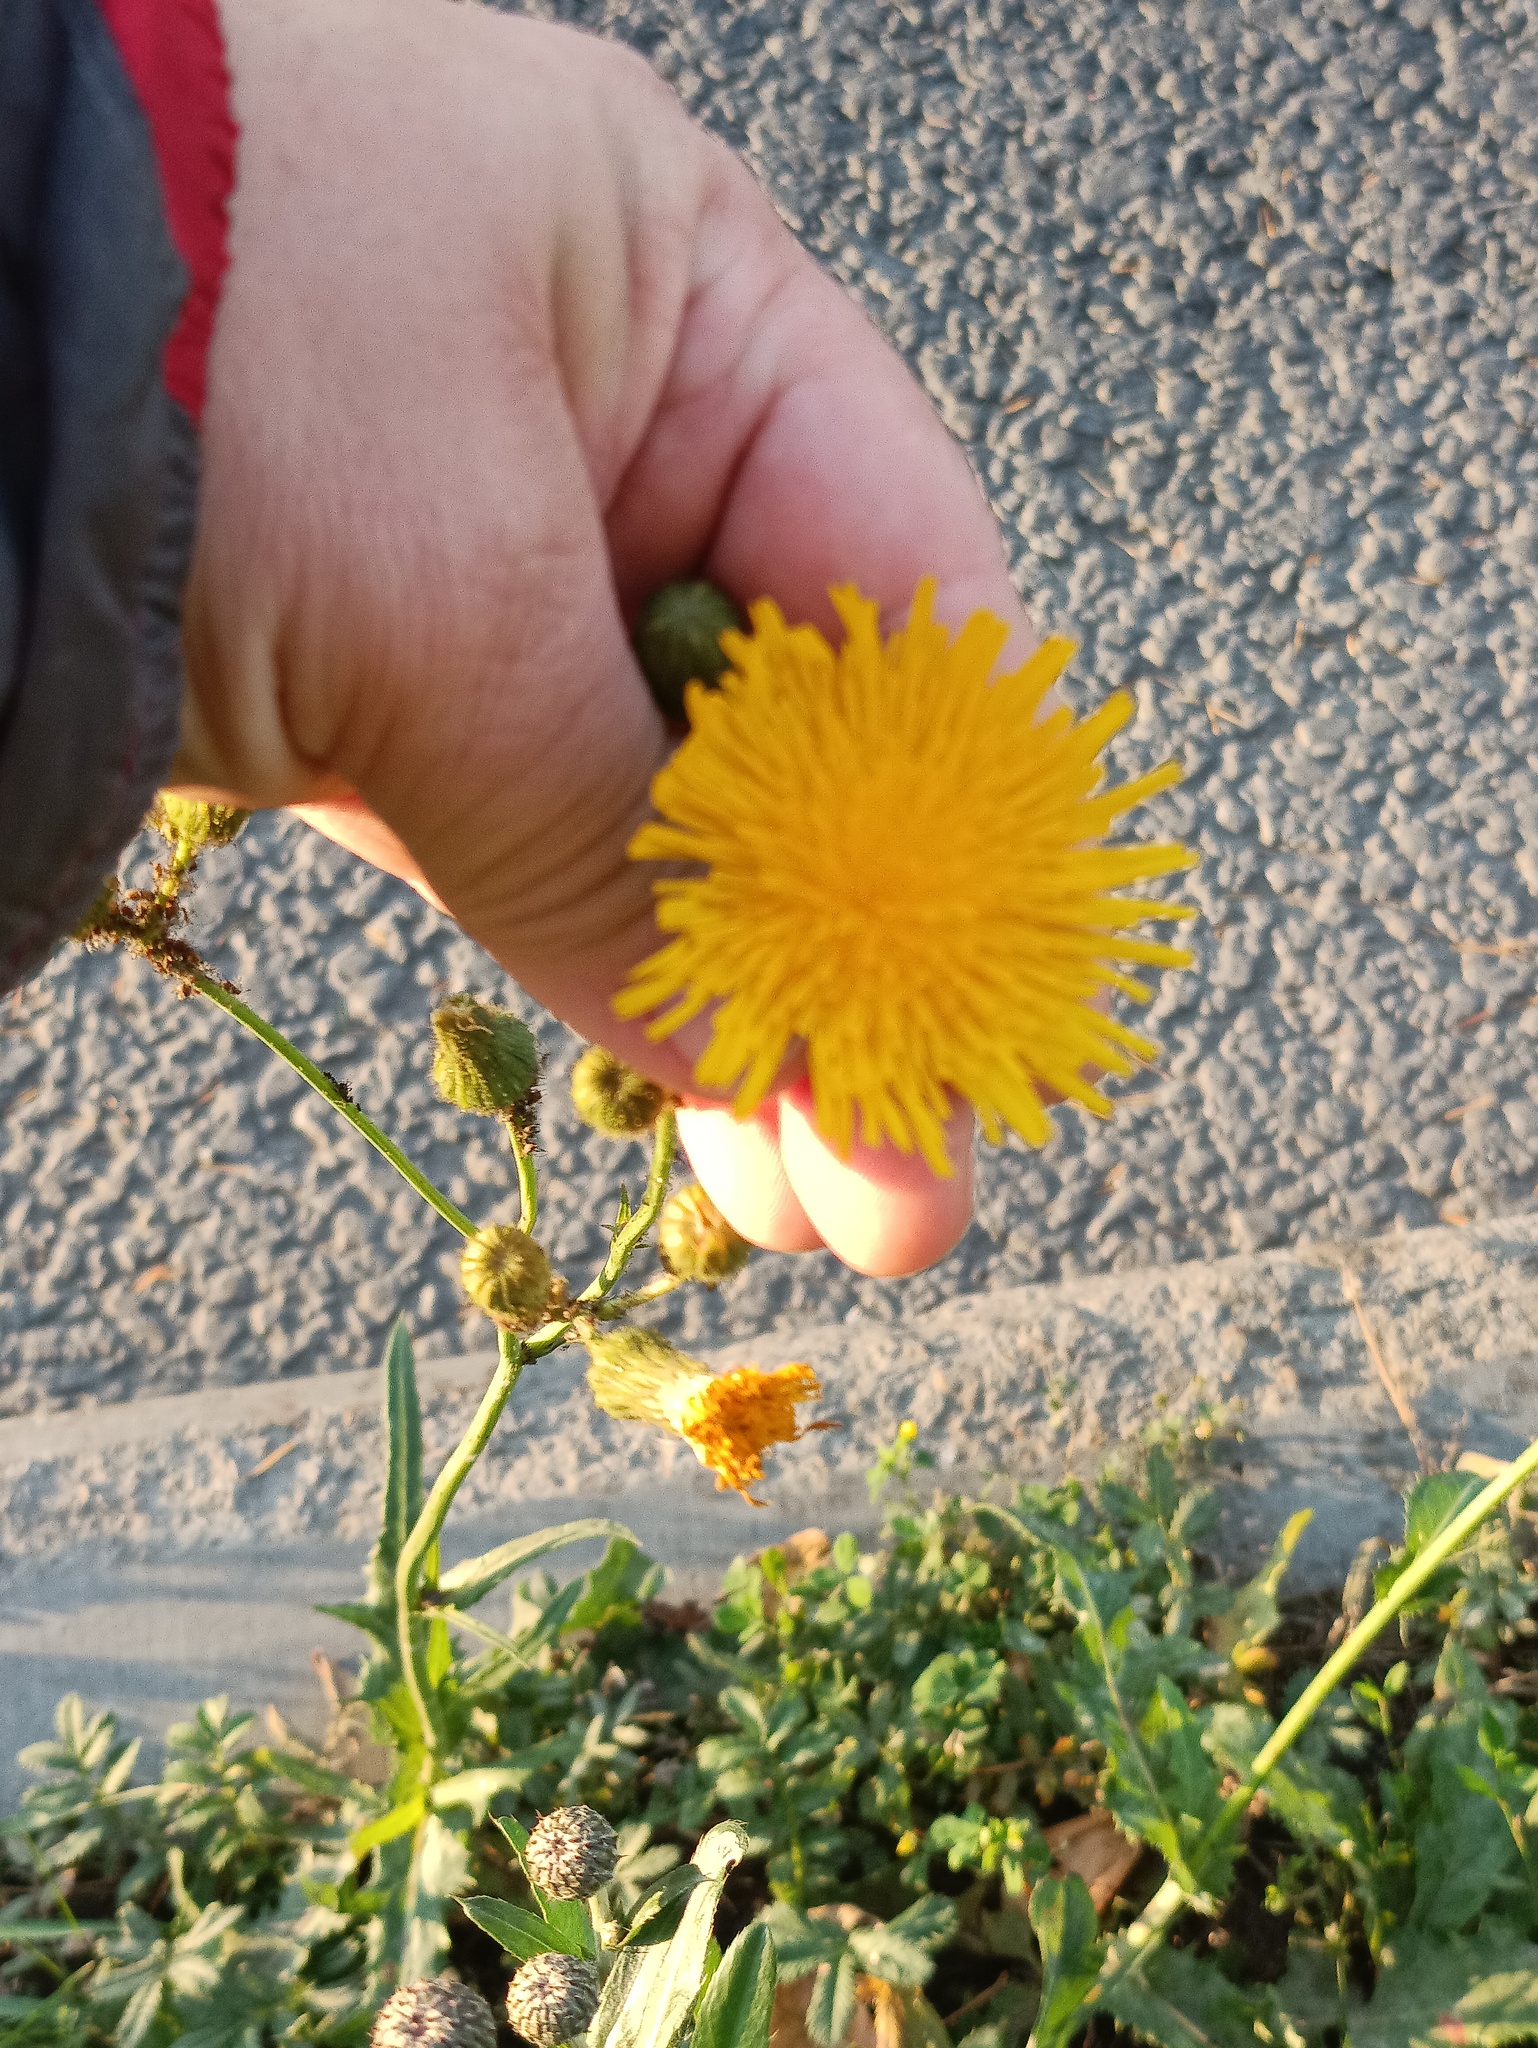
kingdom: Plantae
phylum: Tracheophyta
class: Magnoliopsida
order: Asterales
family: Asteraceae
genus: Sonchus
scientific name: Sonchus arvensis
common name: Perennial sow-thistle
